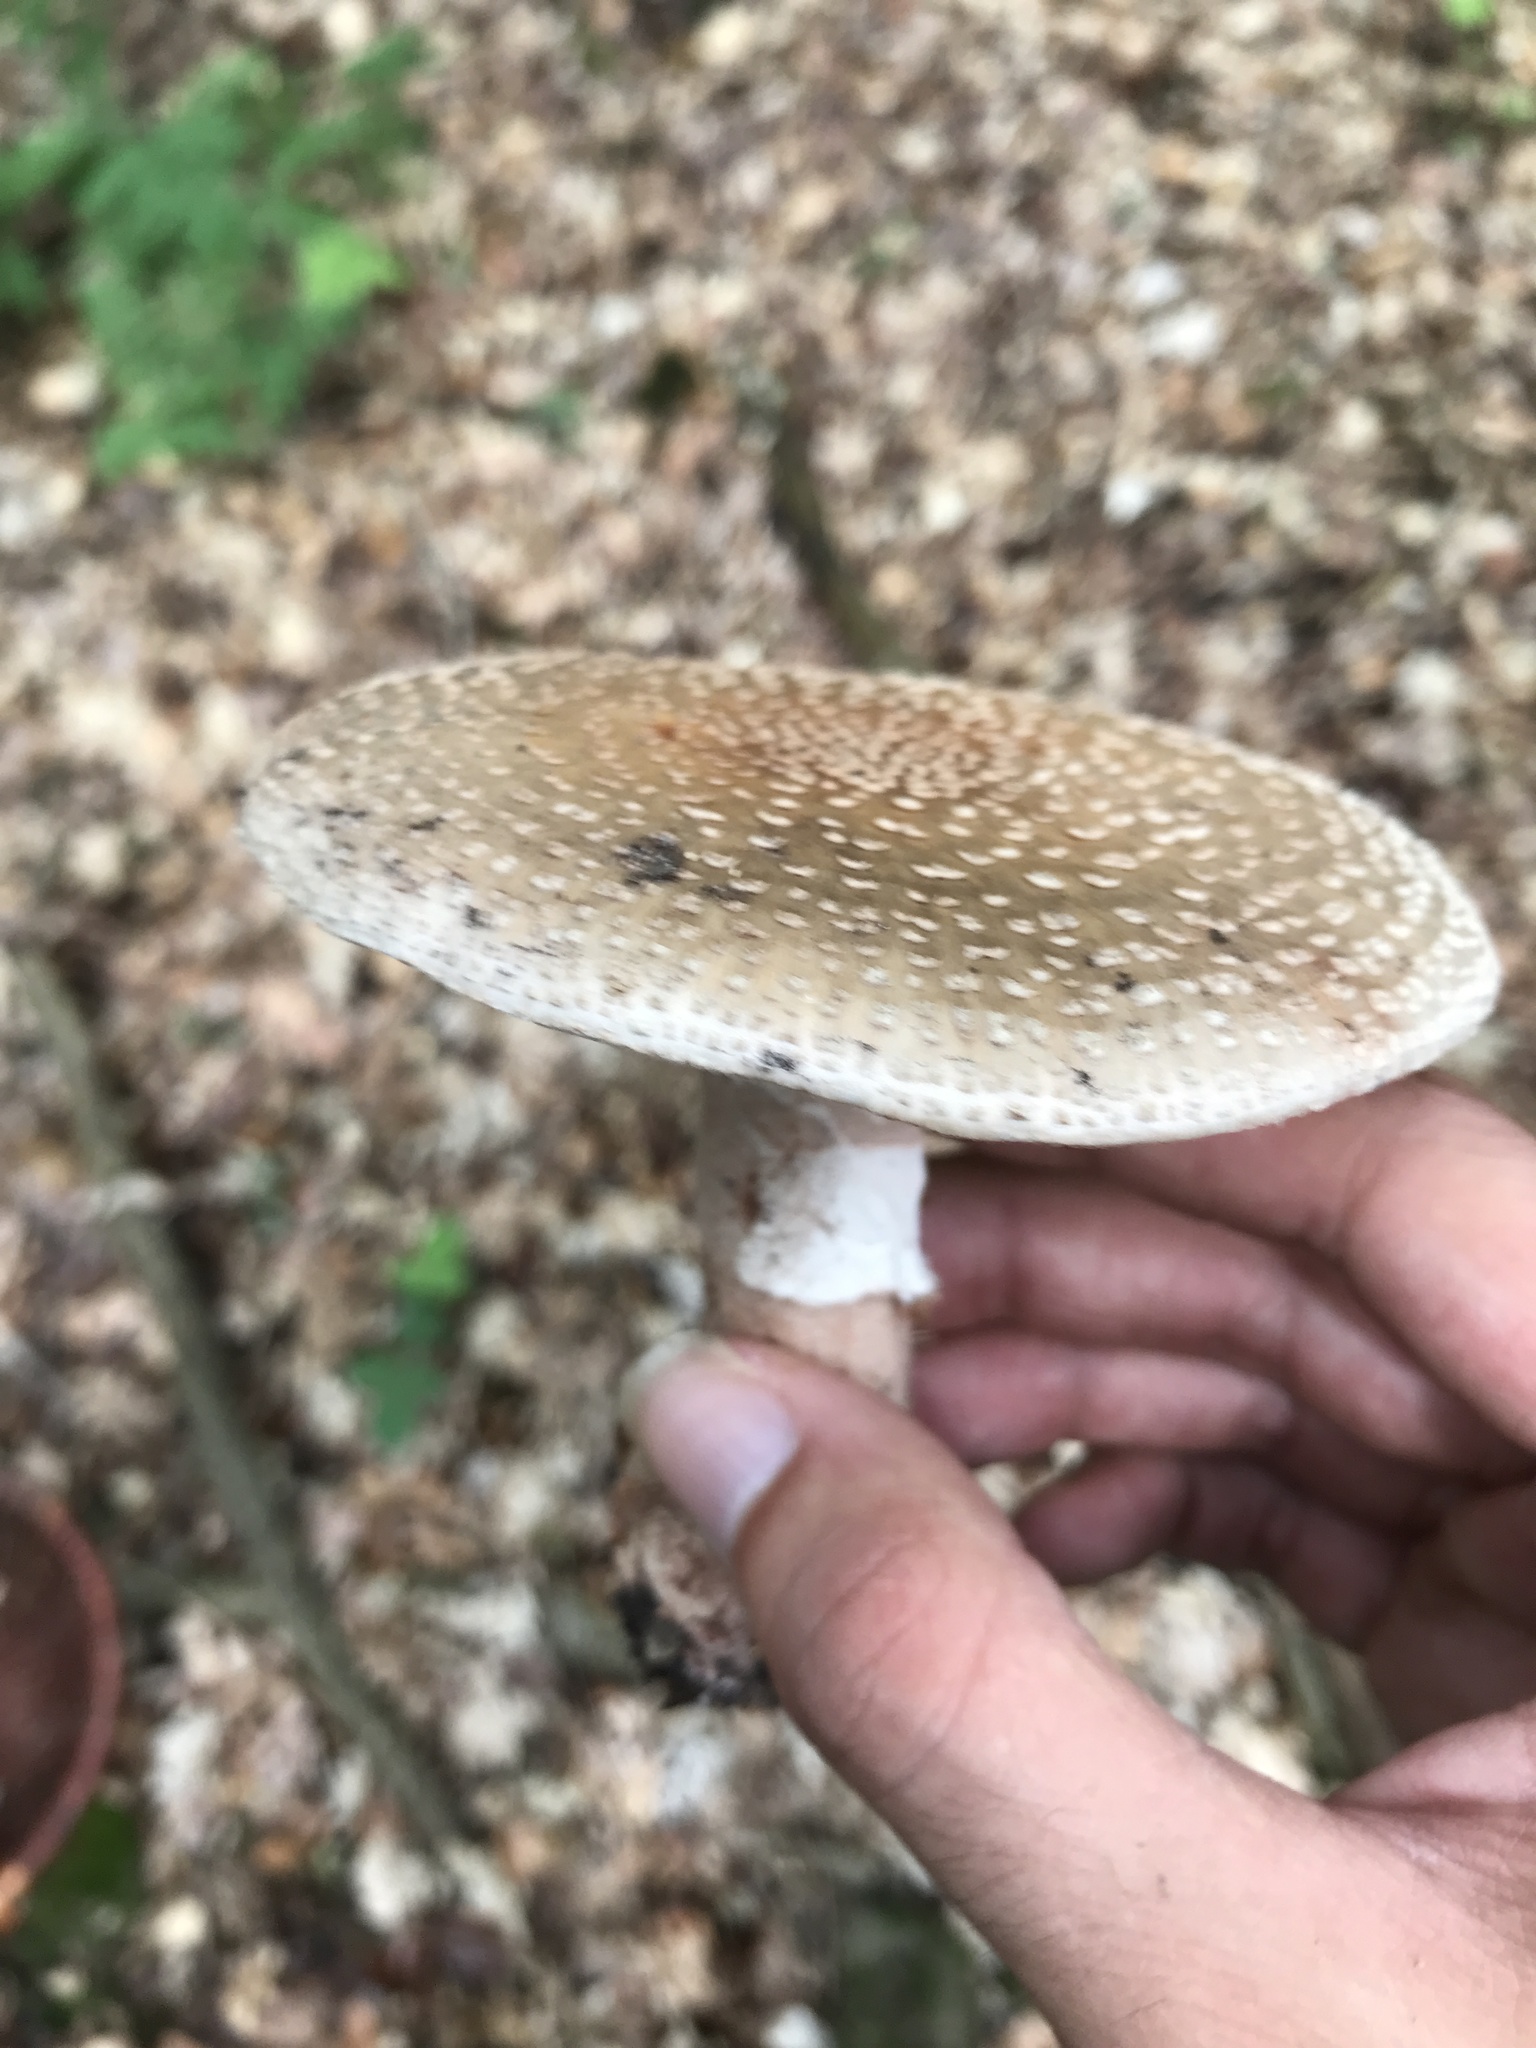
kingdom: Fungi
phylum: Basidiomycota
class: Agaricomycetes
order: Agaricales
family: Amanitaceae
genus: Amanita
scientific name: Amanita rubescens
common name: Blusher
